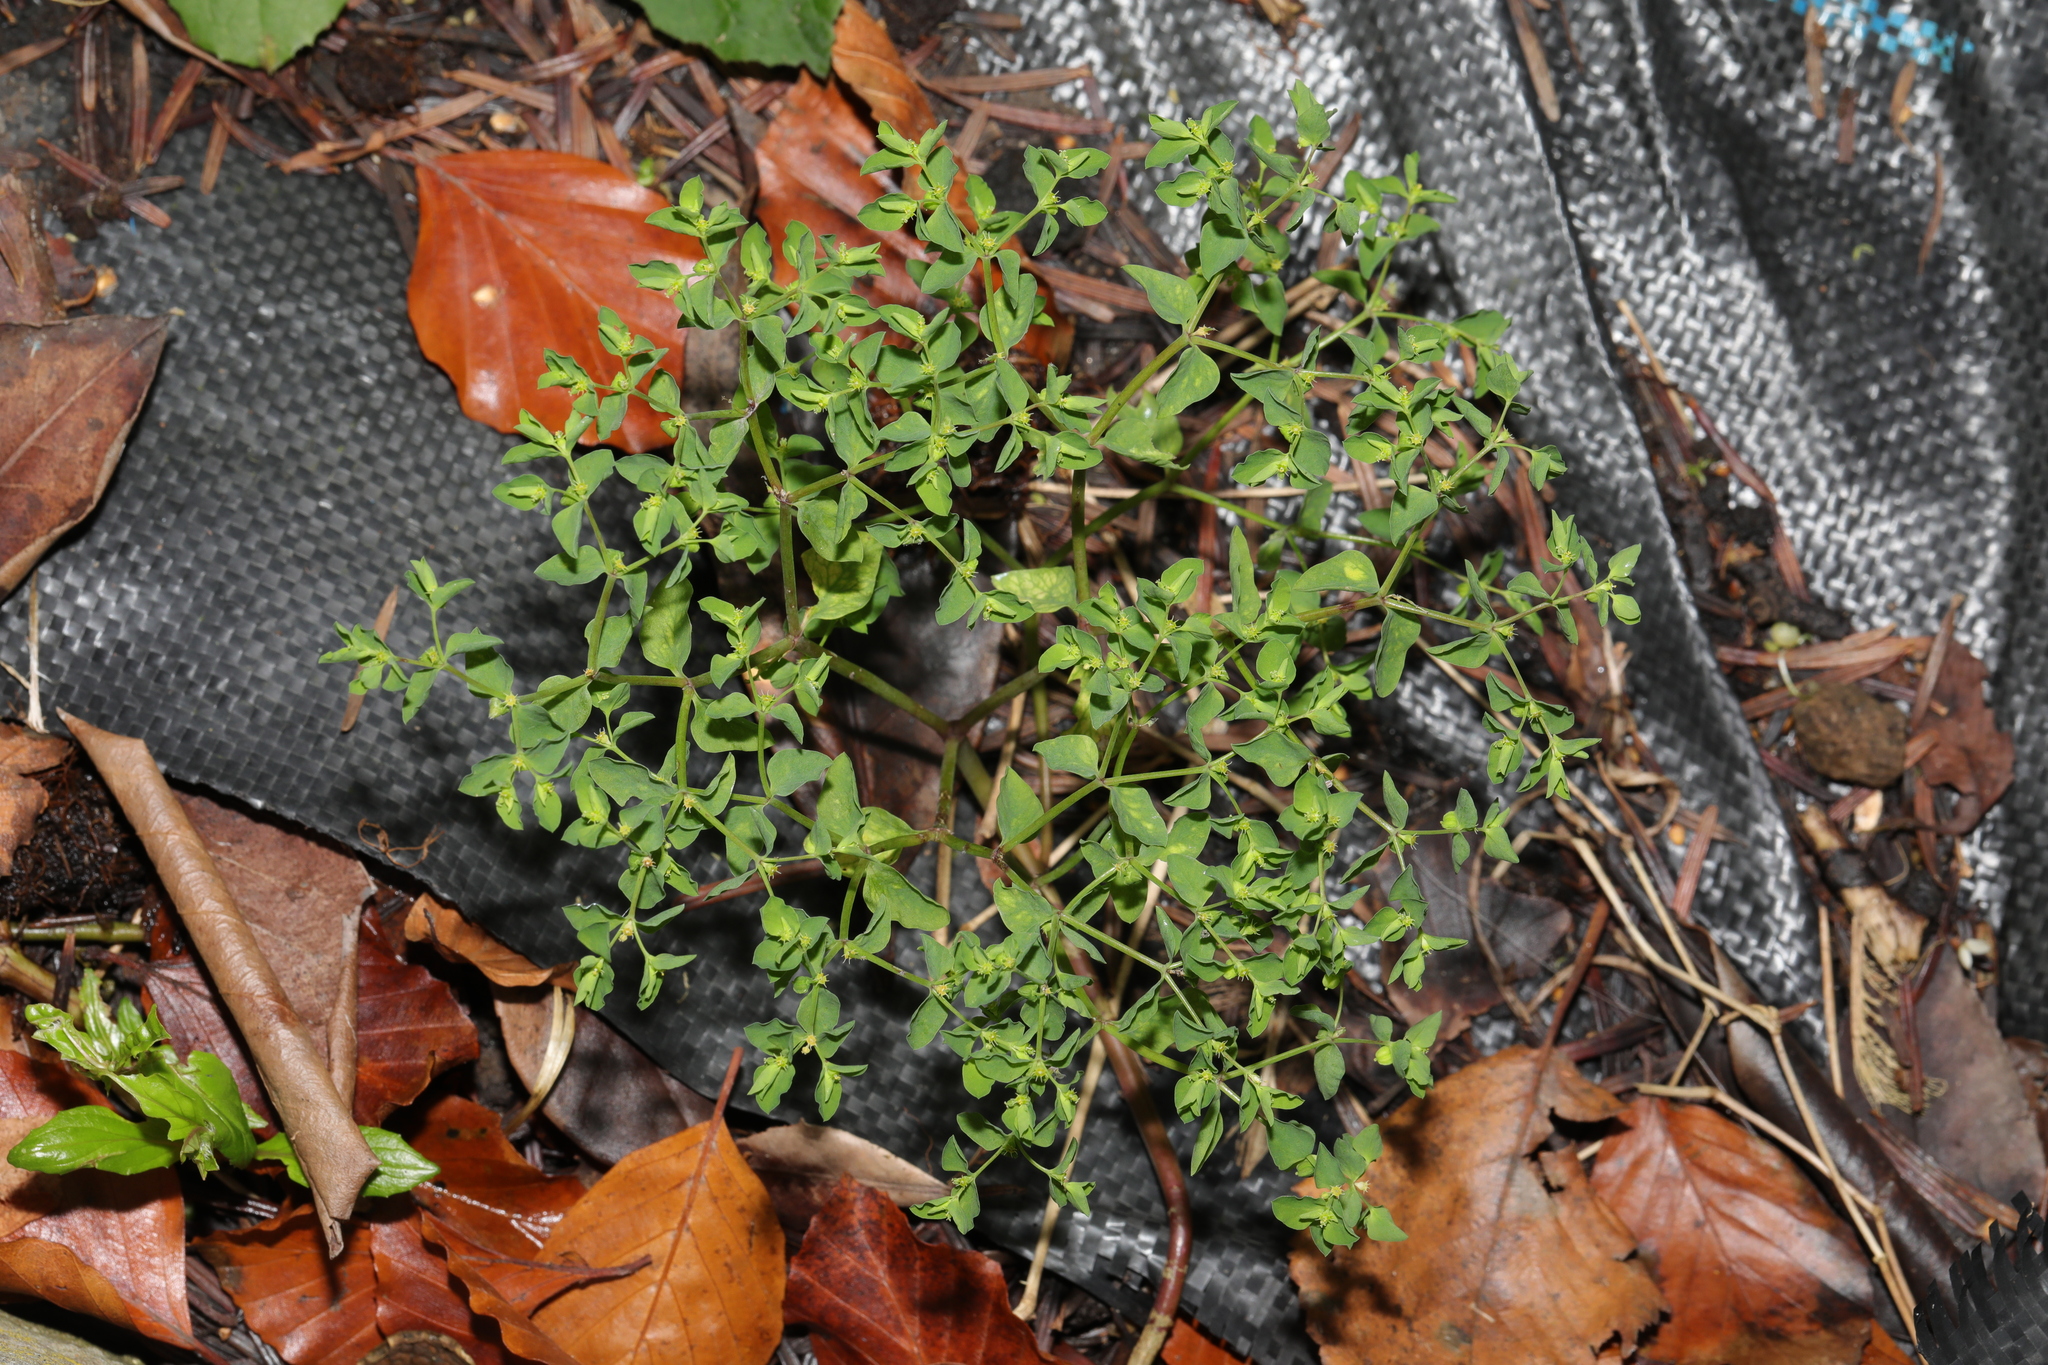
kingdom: Plantae
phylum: Tracheophyta
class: Magnoliopsida
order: Malpighiales
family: Euphorbiaceae
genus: Euphorbia
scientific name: Euphorbia peplus
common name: Petty spurge
